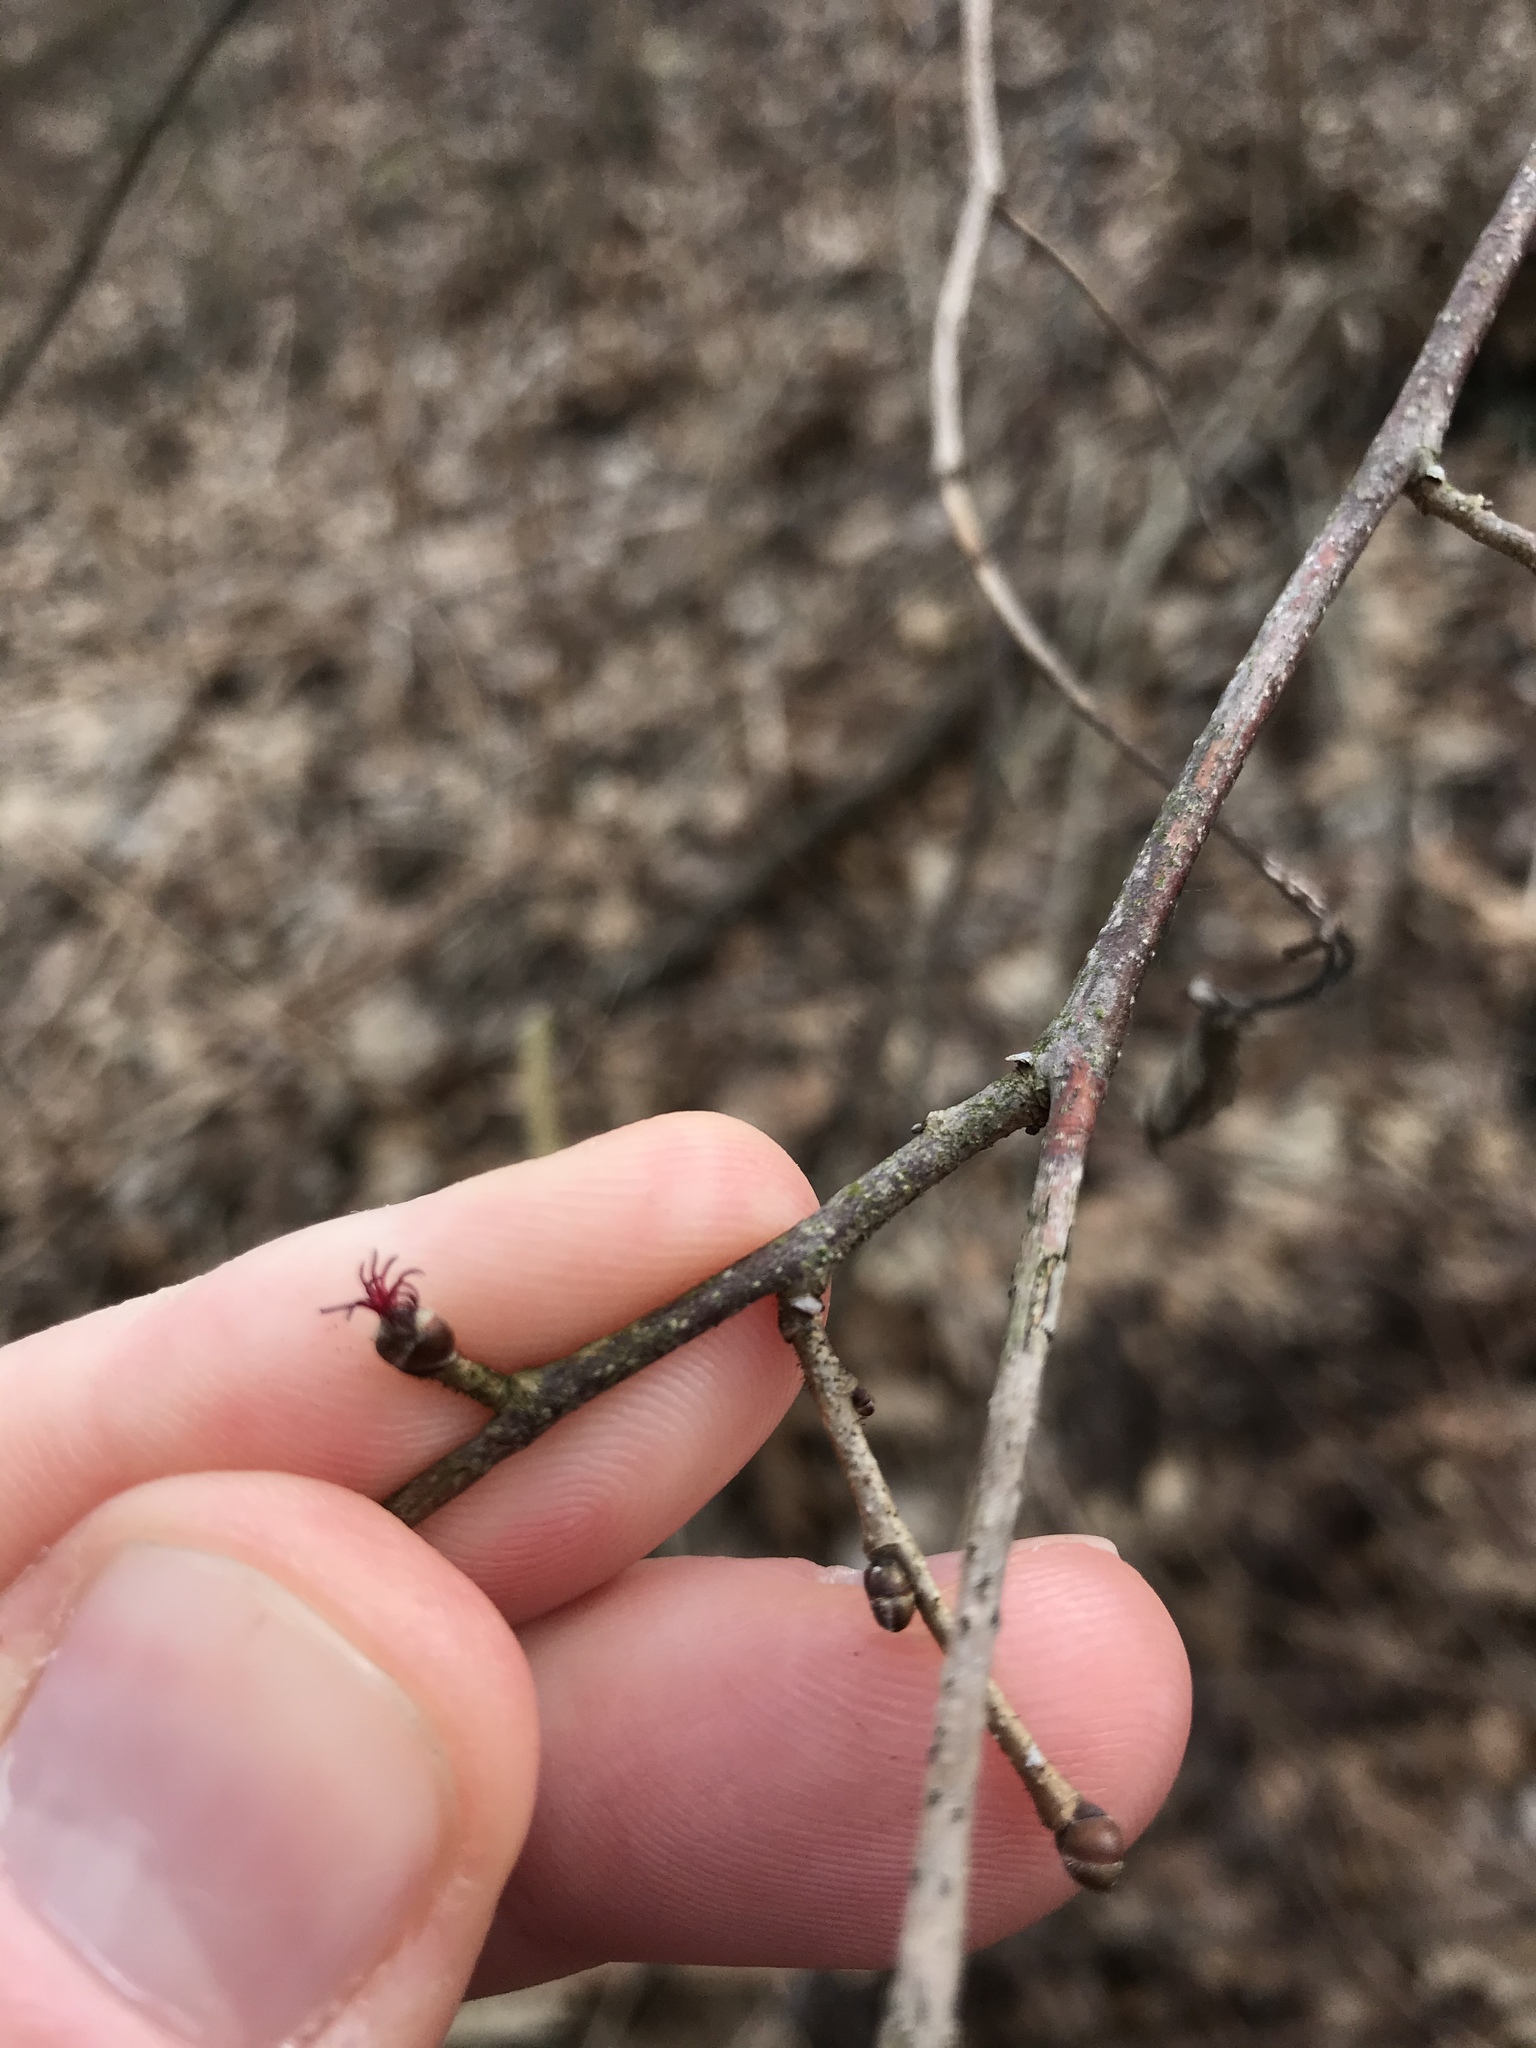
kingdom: Plantae
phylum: Tracheophyta
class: Magnoliopsida
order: Fagales
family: Betulaceae
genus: Corylus
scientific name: Corylus americana
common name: American hazel
